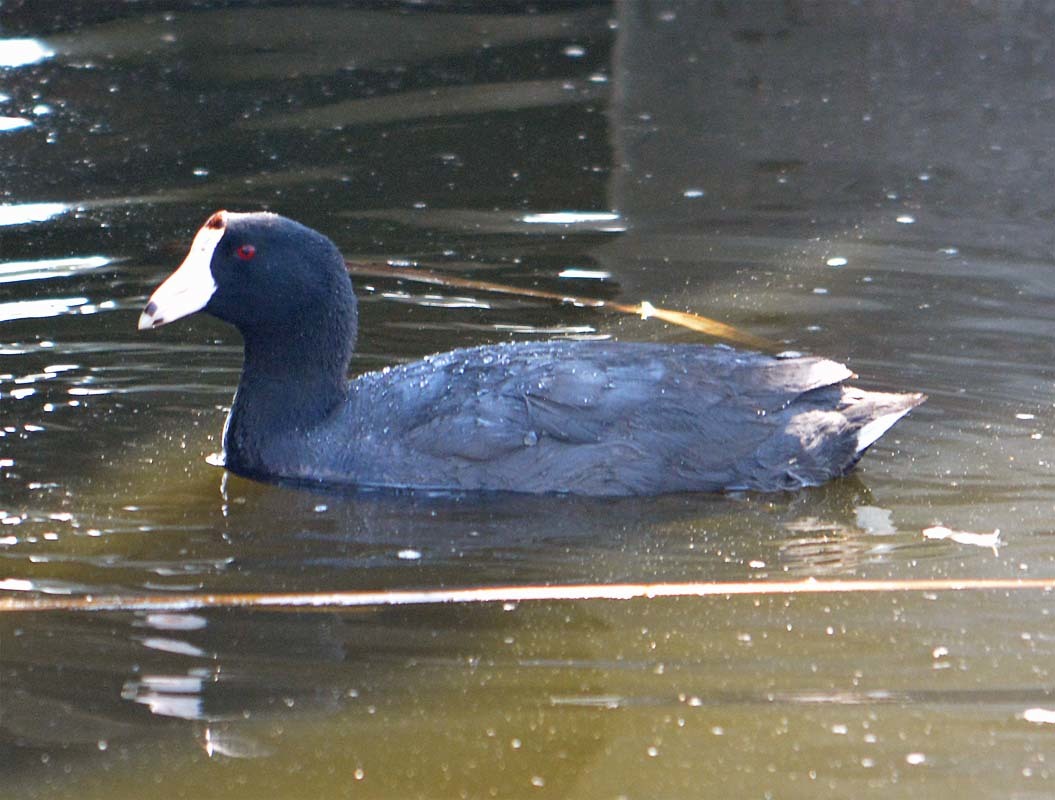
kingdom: Animalia
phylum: Chordata
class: Aves
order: Gruiformes
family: Rallidae
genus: Fulica
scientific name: Fulica americana
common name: American coot
